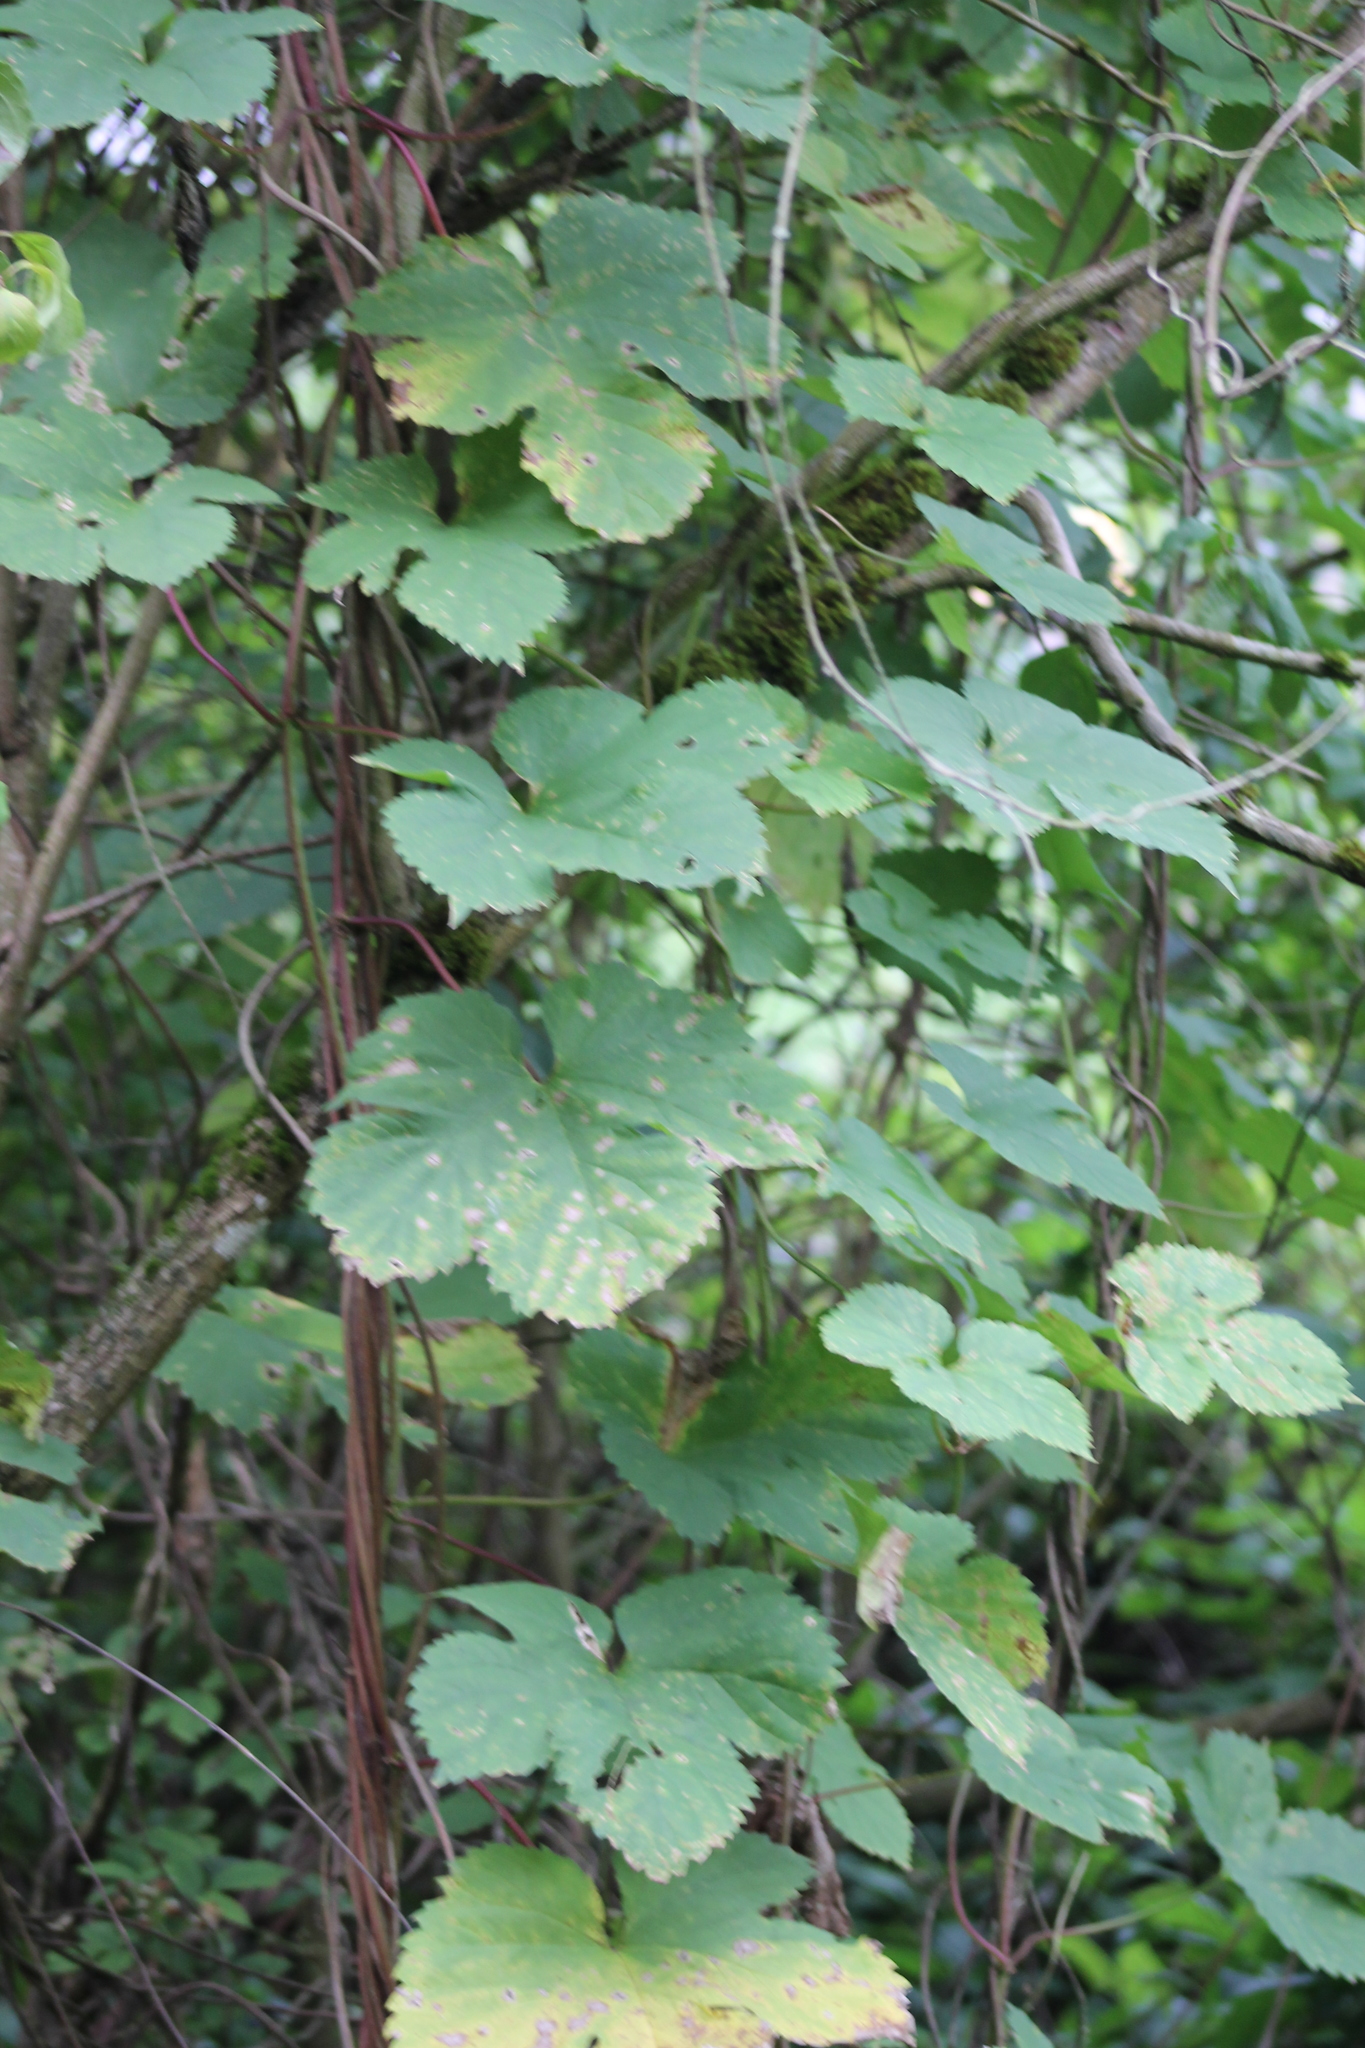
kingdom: Plantae
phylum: Tracheophyta
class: Magnoliopsida
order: Rosales
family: Cannabaceae
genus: Humulus
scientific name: Humulus lupulus
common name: Hop
